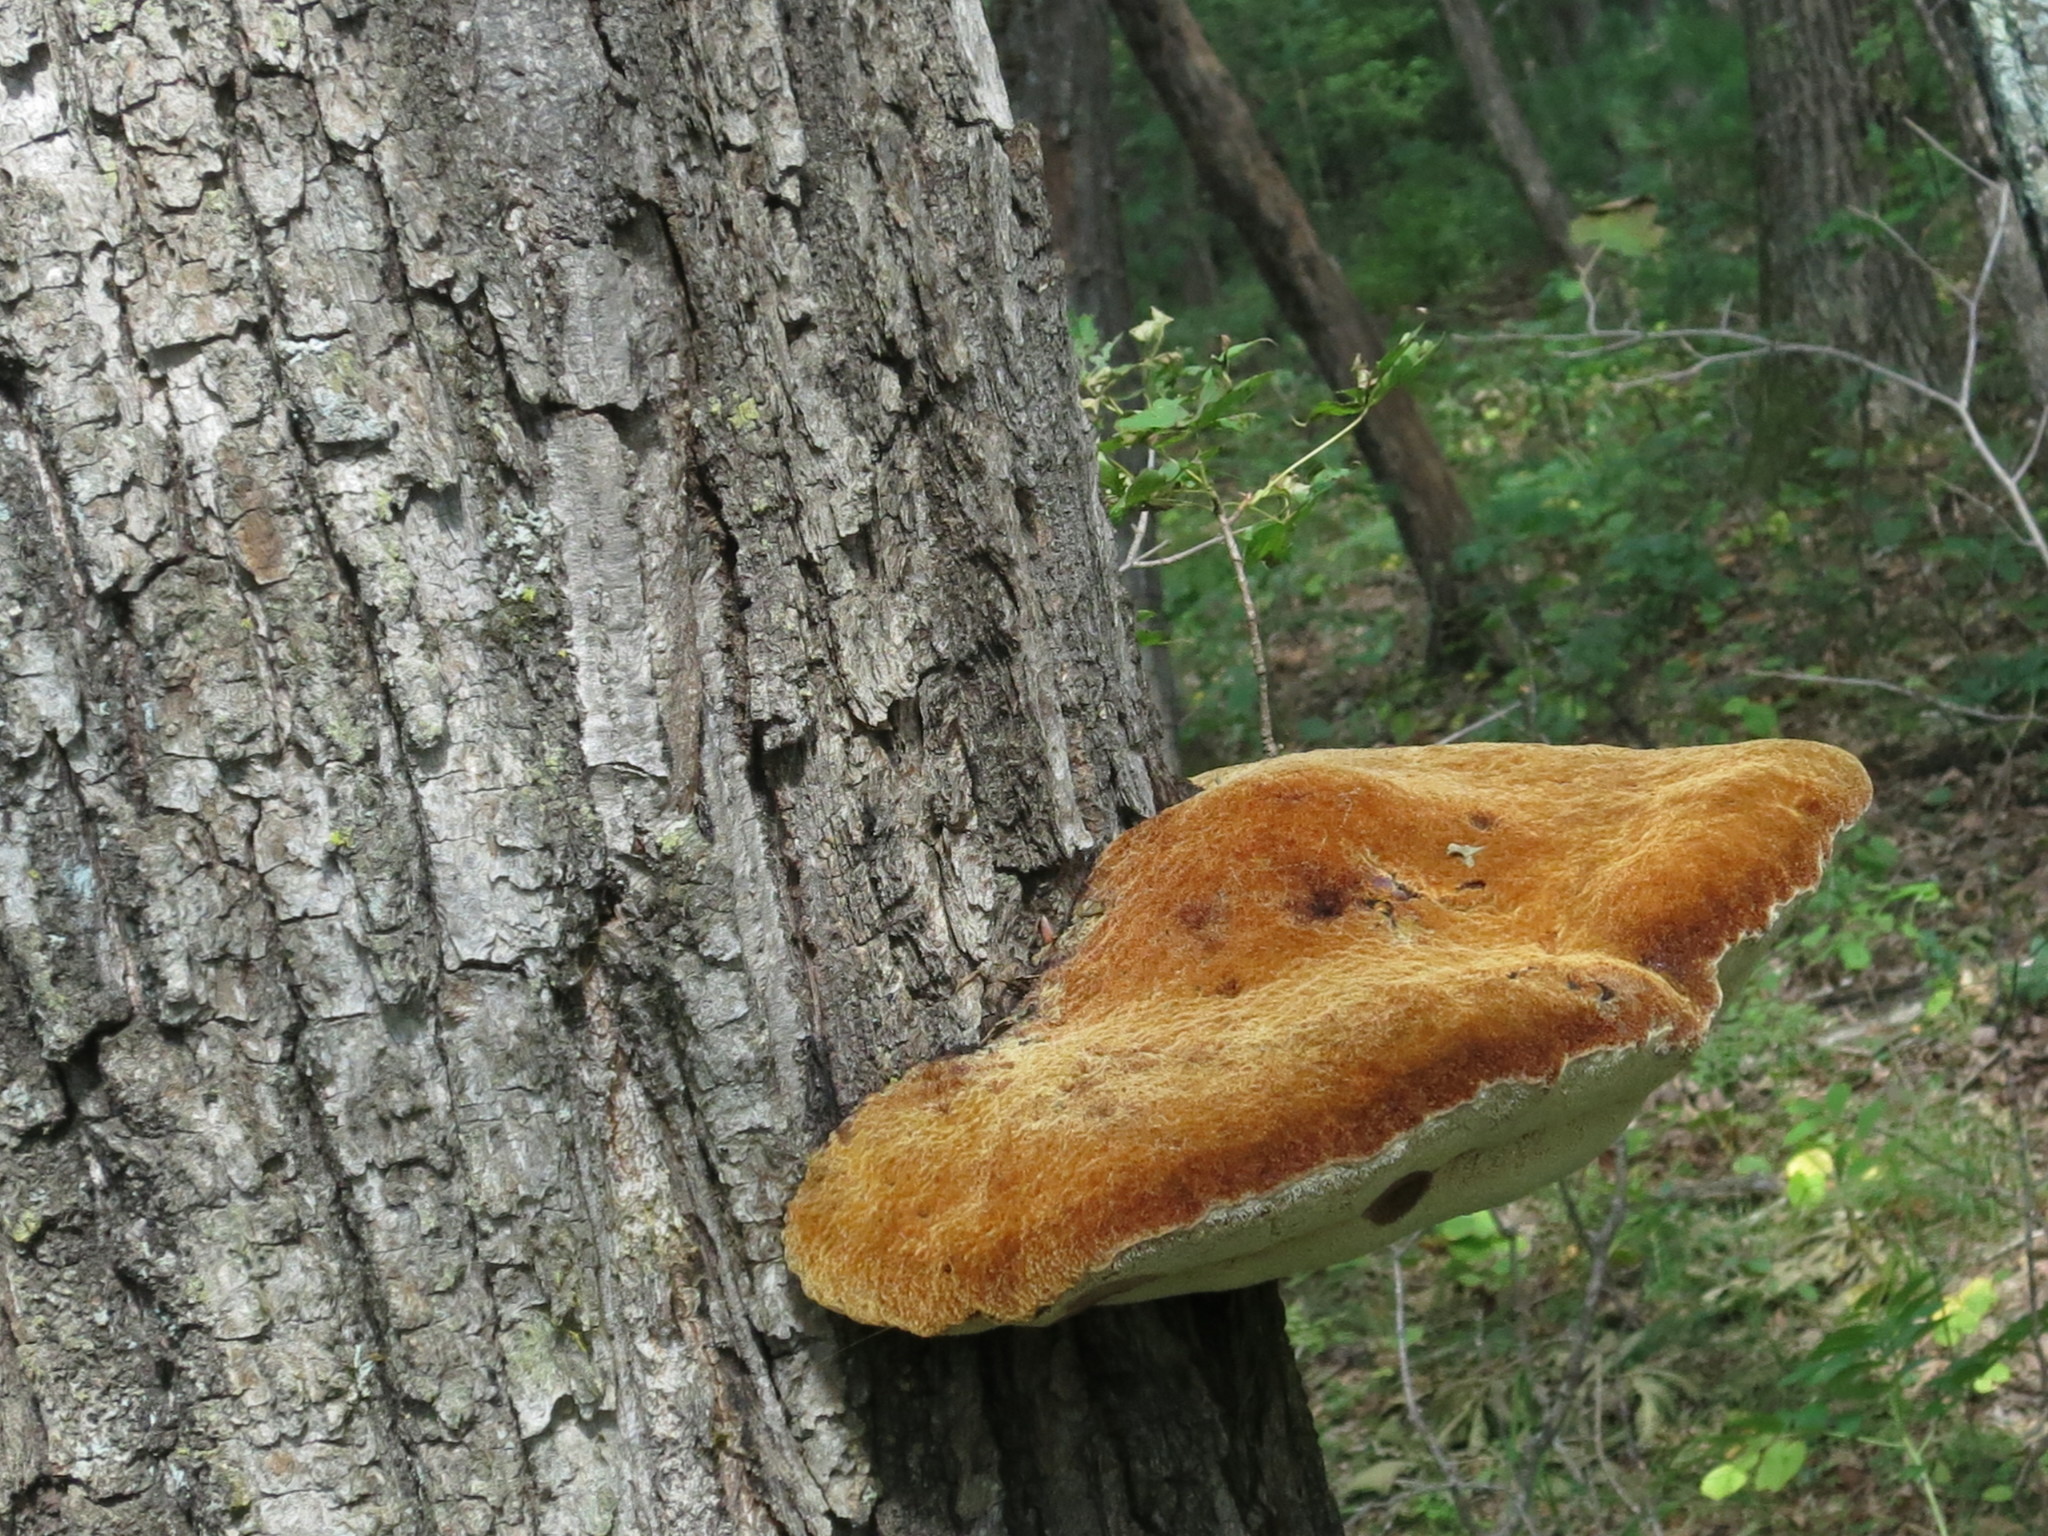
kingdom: Fungi
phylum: Basidiomycota
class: Agaricomycetes
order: Hymenochaetales
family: Hymenochaetaceae
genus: Inonotus
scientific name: Inonotus hispidus
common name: Shaggy bracket
